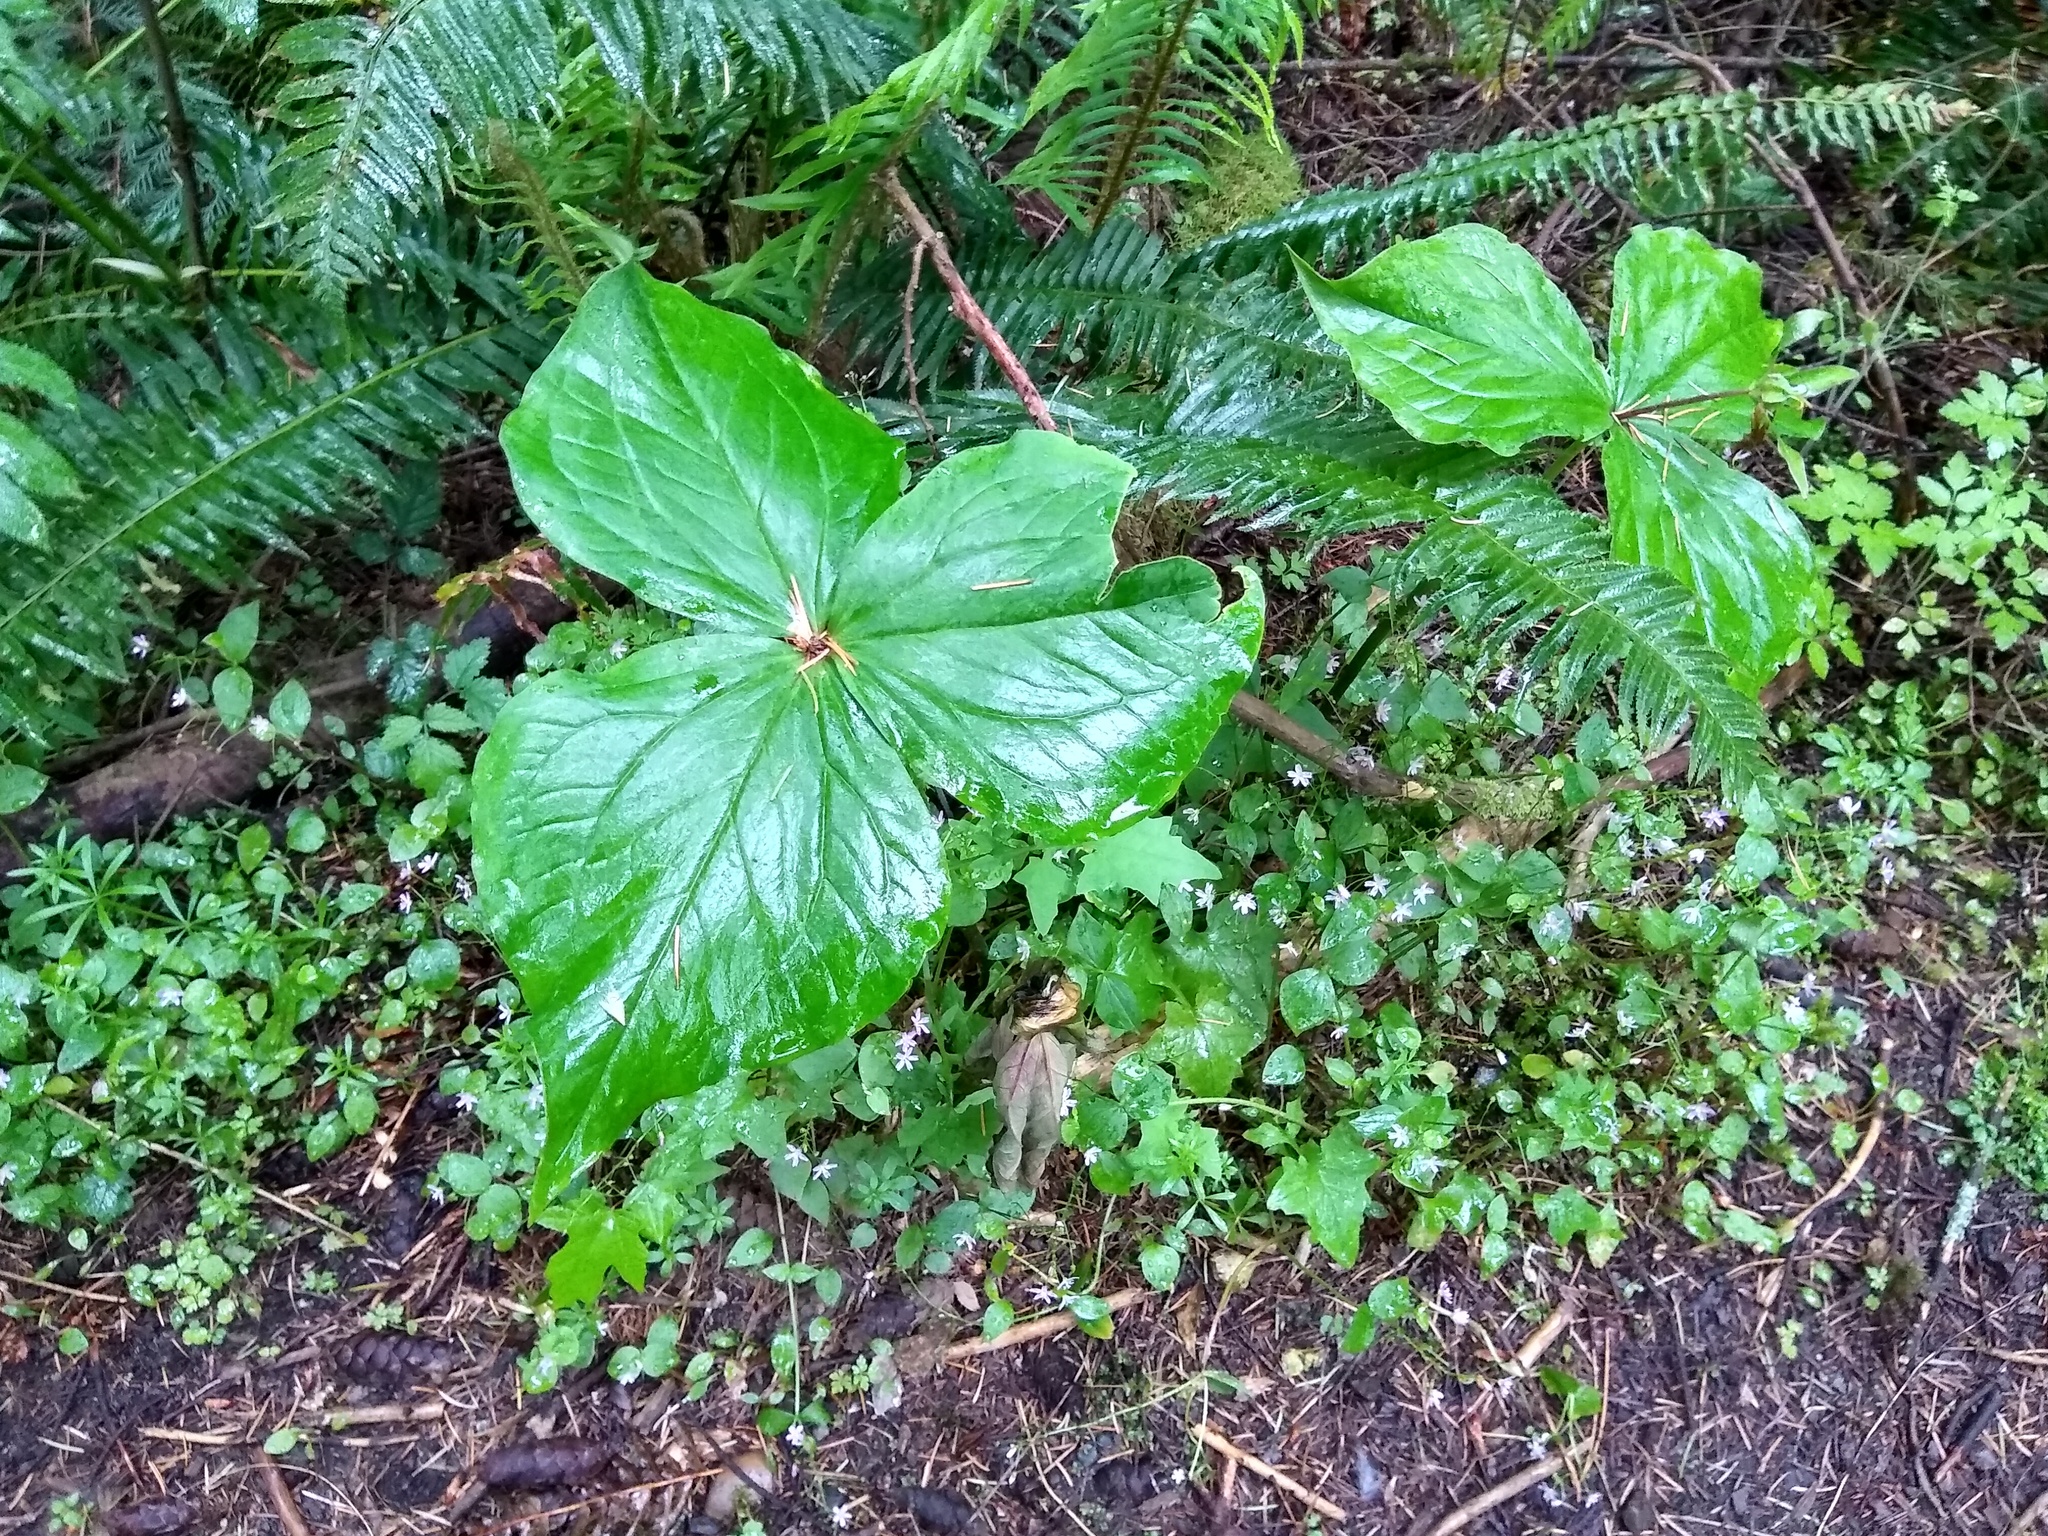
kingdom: Plantae
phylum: Tracheophyta
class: Liliopsida
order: Liliales
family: Melanthiaceae
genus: Trillium
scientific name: Trillium ovatum
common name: Pacific trillium
